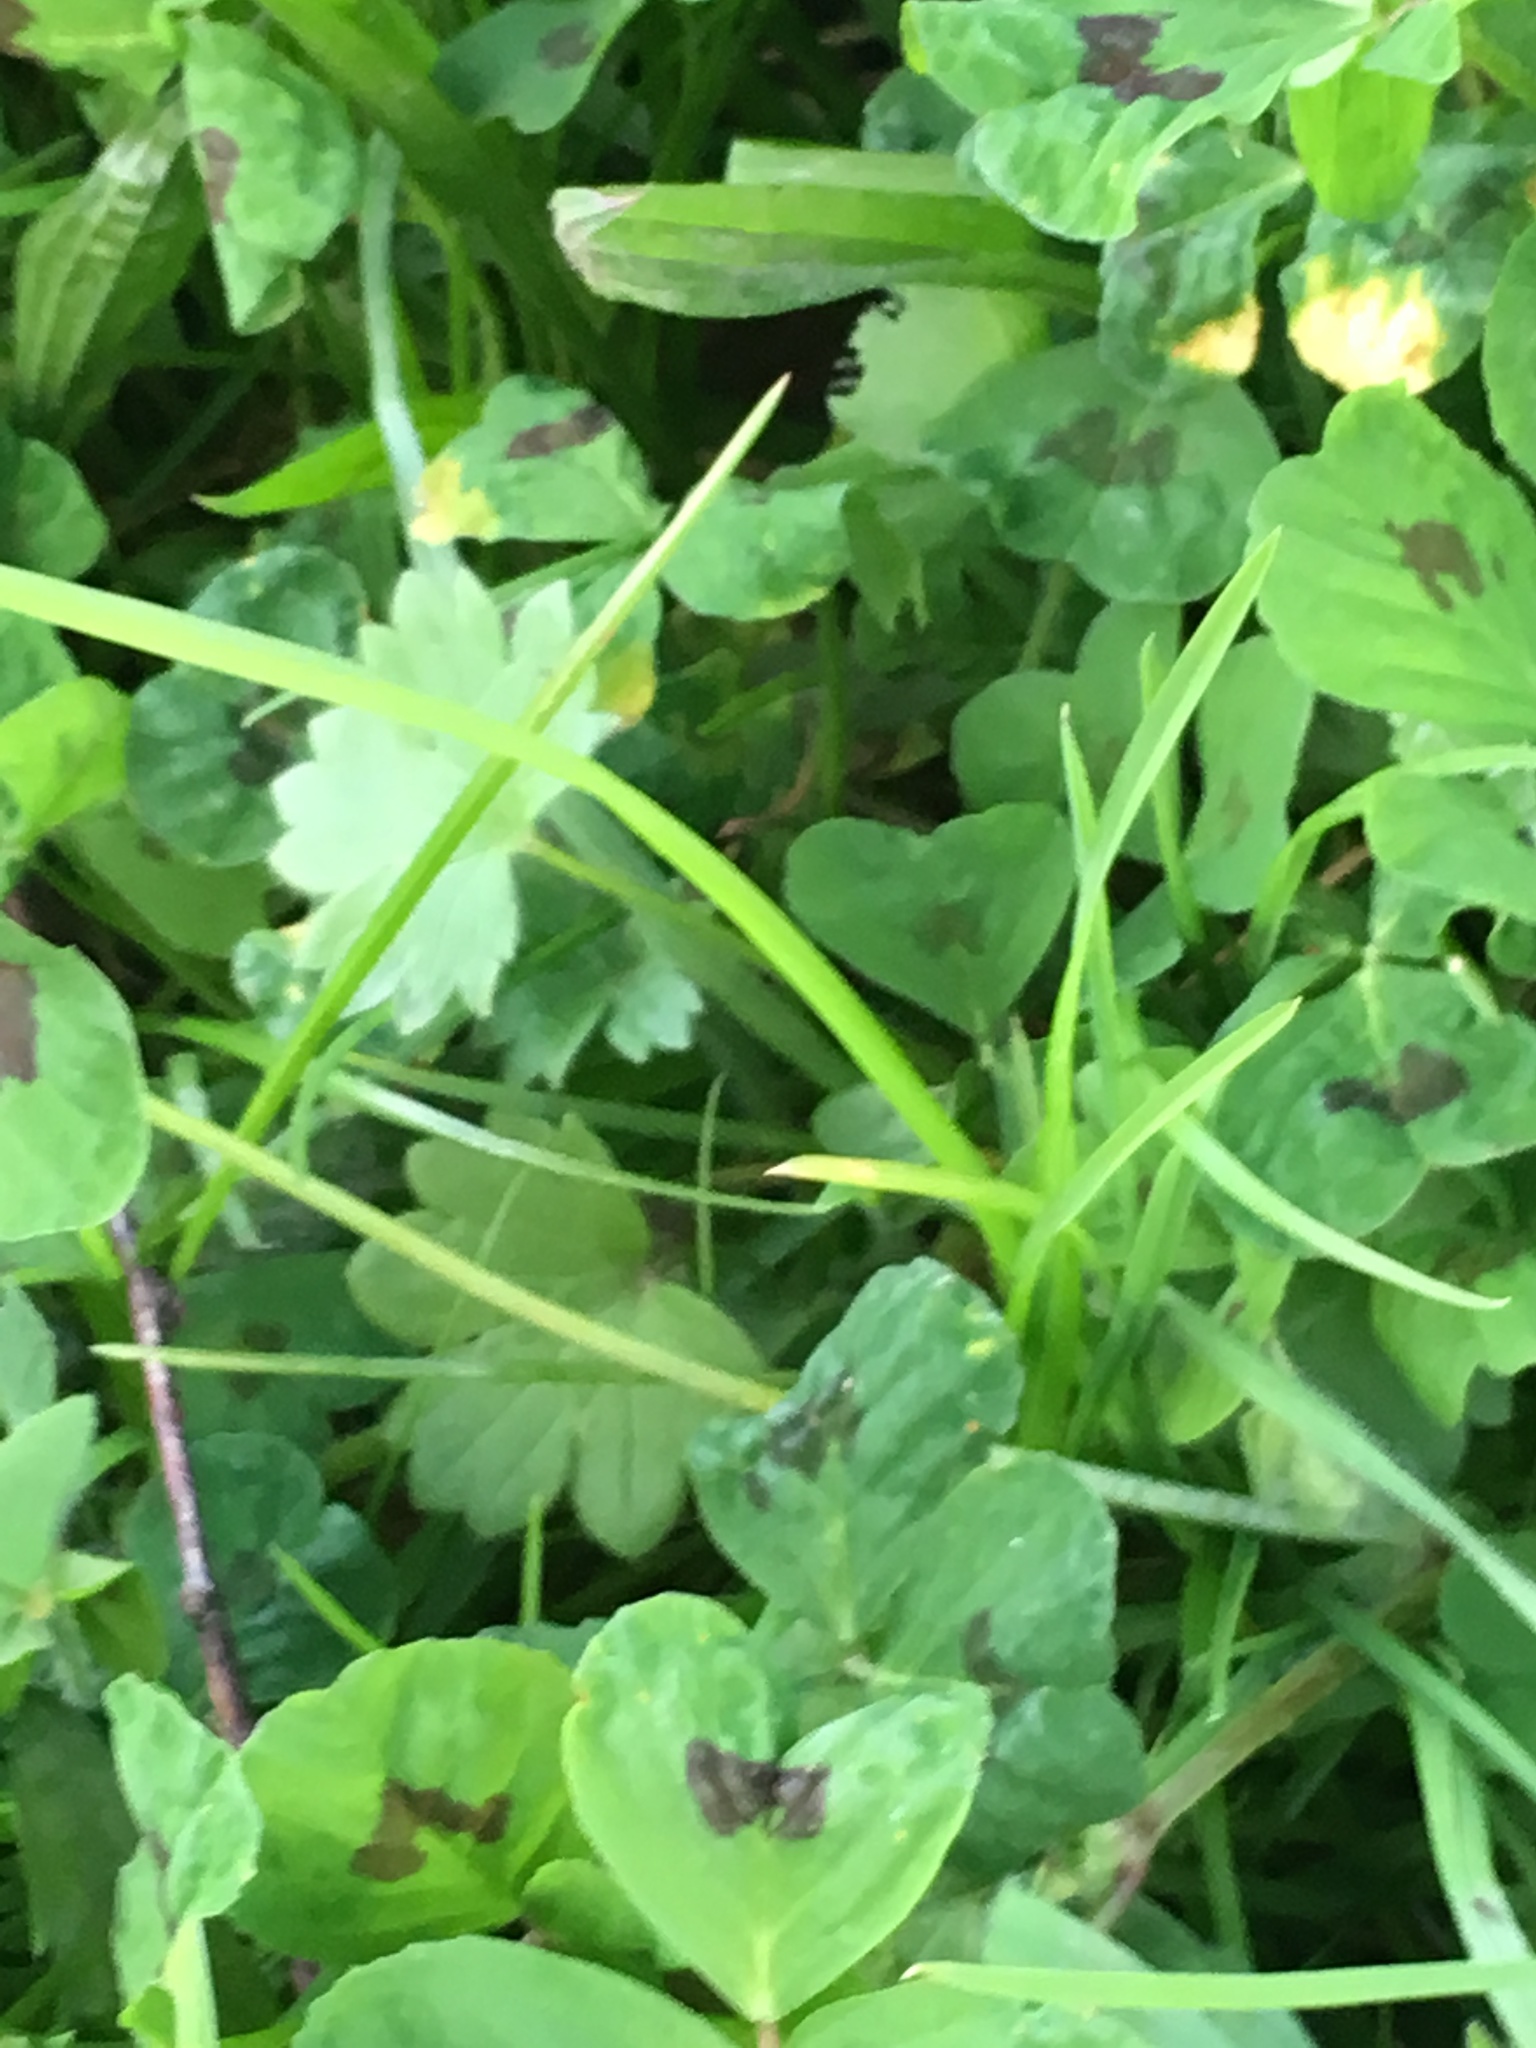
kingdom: Plantae
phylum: Tracheophyta
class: Magnoliopsida
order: Fabales
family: Fabaceae
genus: Medicago
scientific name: Medicago arabica
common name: Spotted medick
